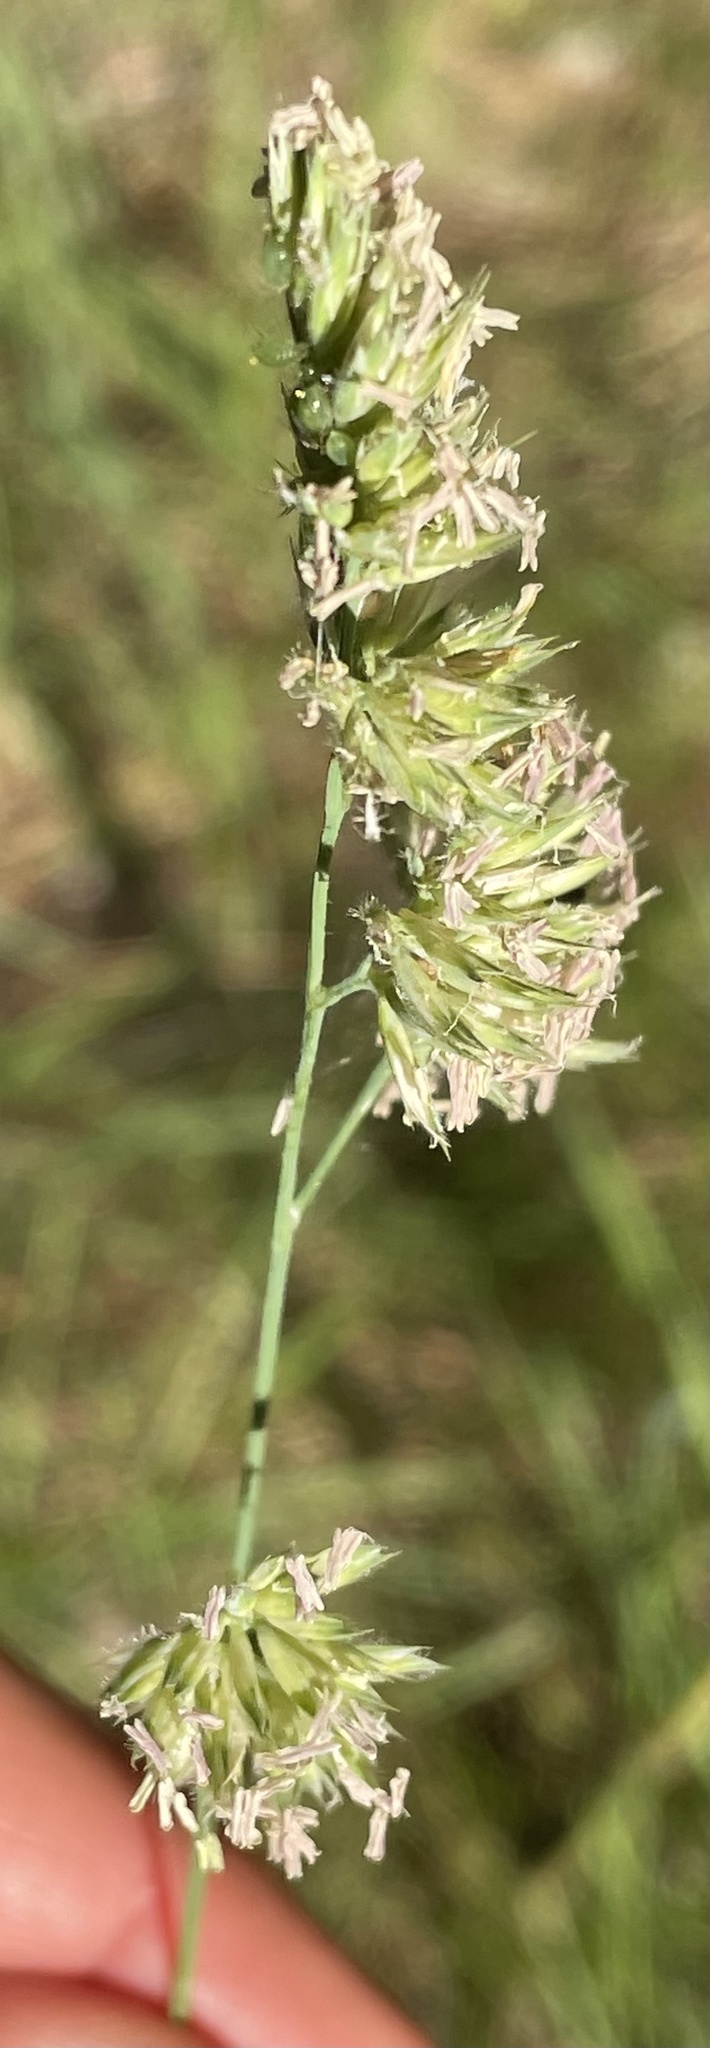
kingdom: Plantae
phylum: Tracheophyta
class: Liliopsida
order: Poales
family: Poaceae
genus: Dactylis
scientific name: Dactylis glomerata
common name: Orchardgrass
